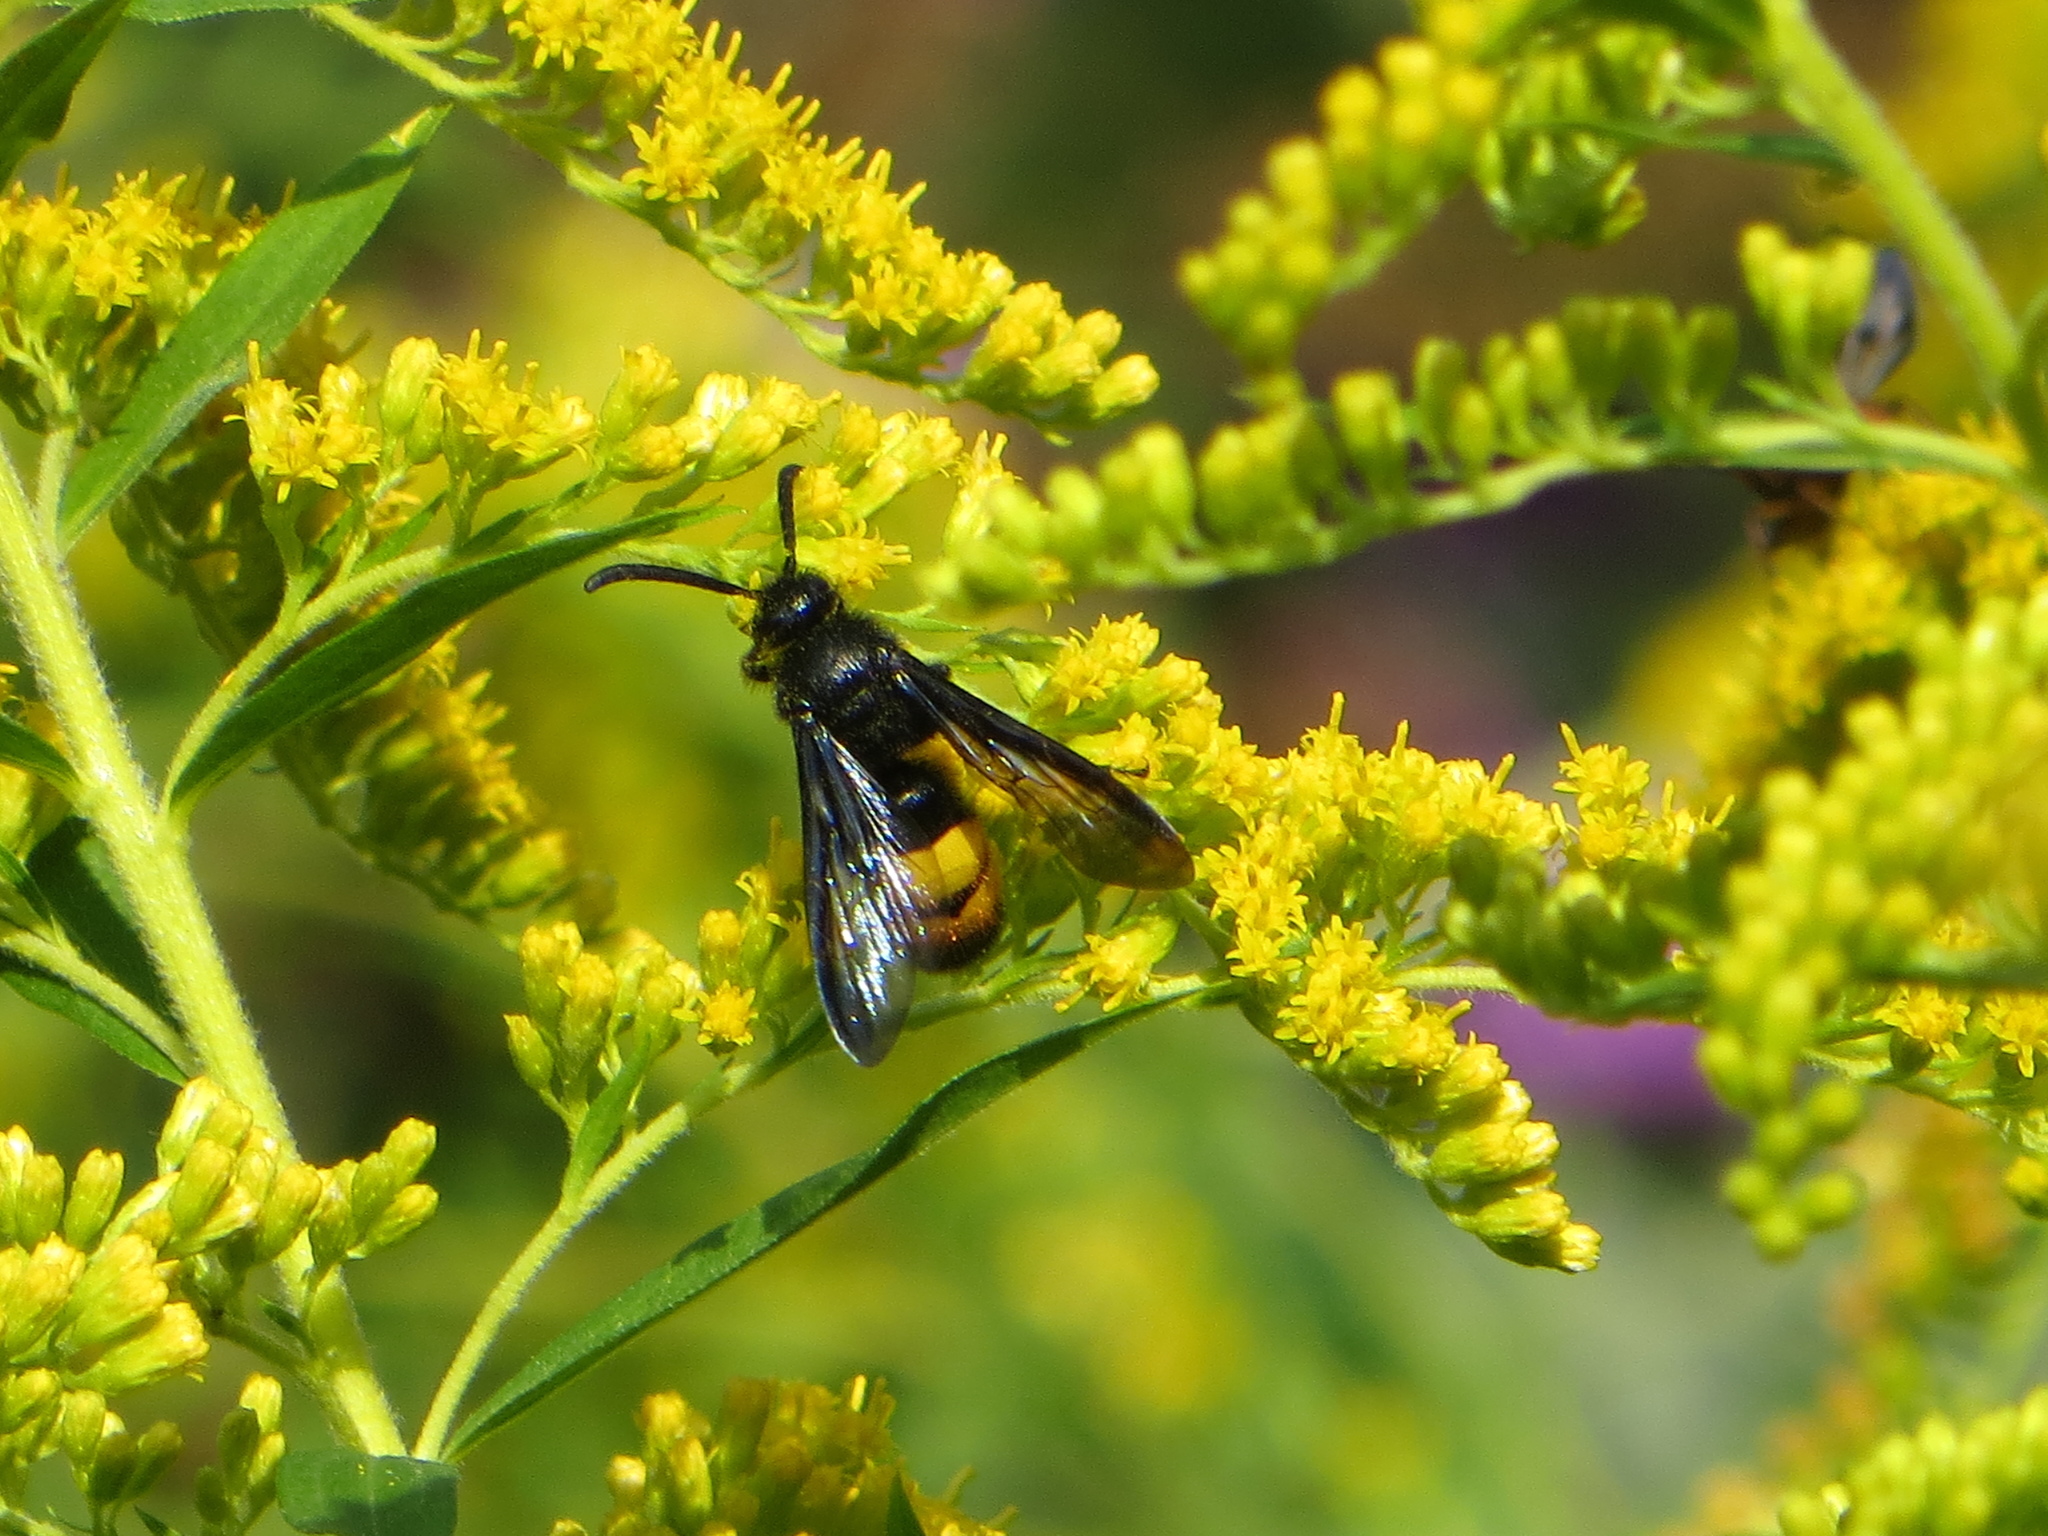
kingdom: Animalia
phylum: Arthropoda
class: Insecta
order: Hymenoptera
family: Scoliidae
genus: Scolia
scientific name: Scolia hirta
